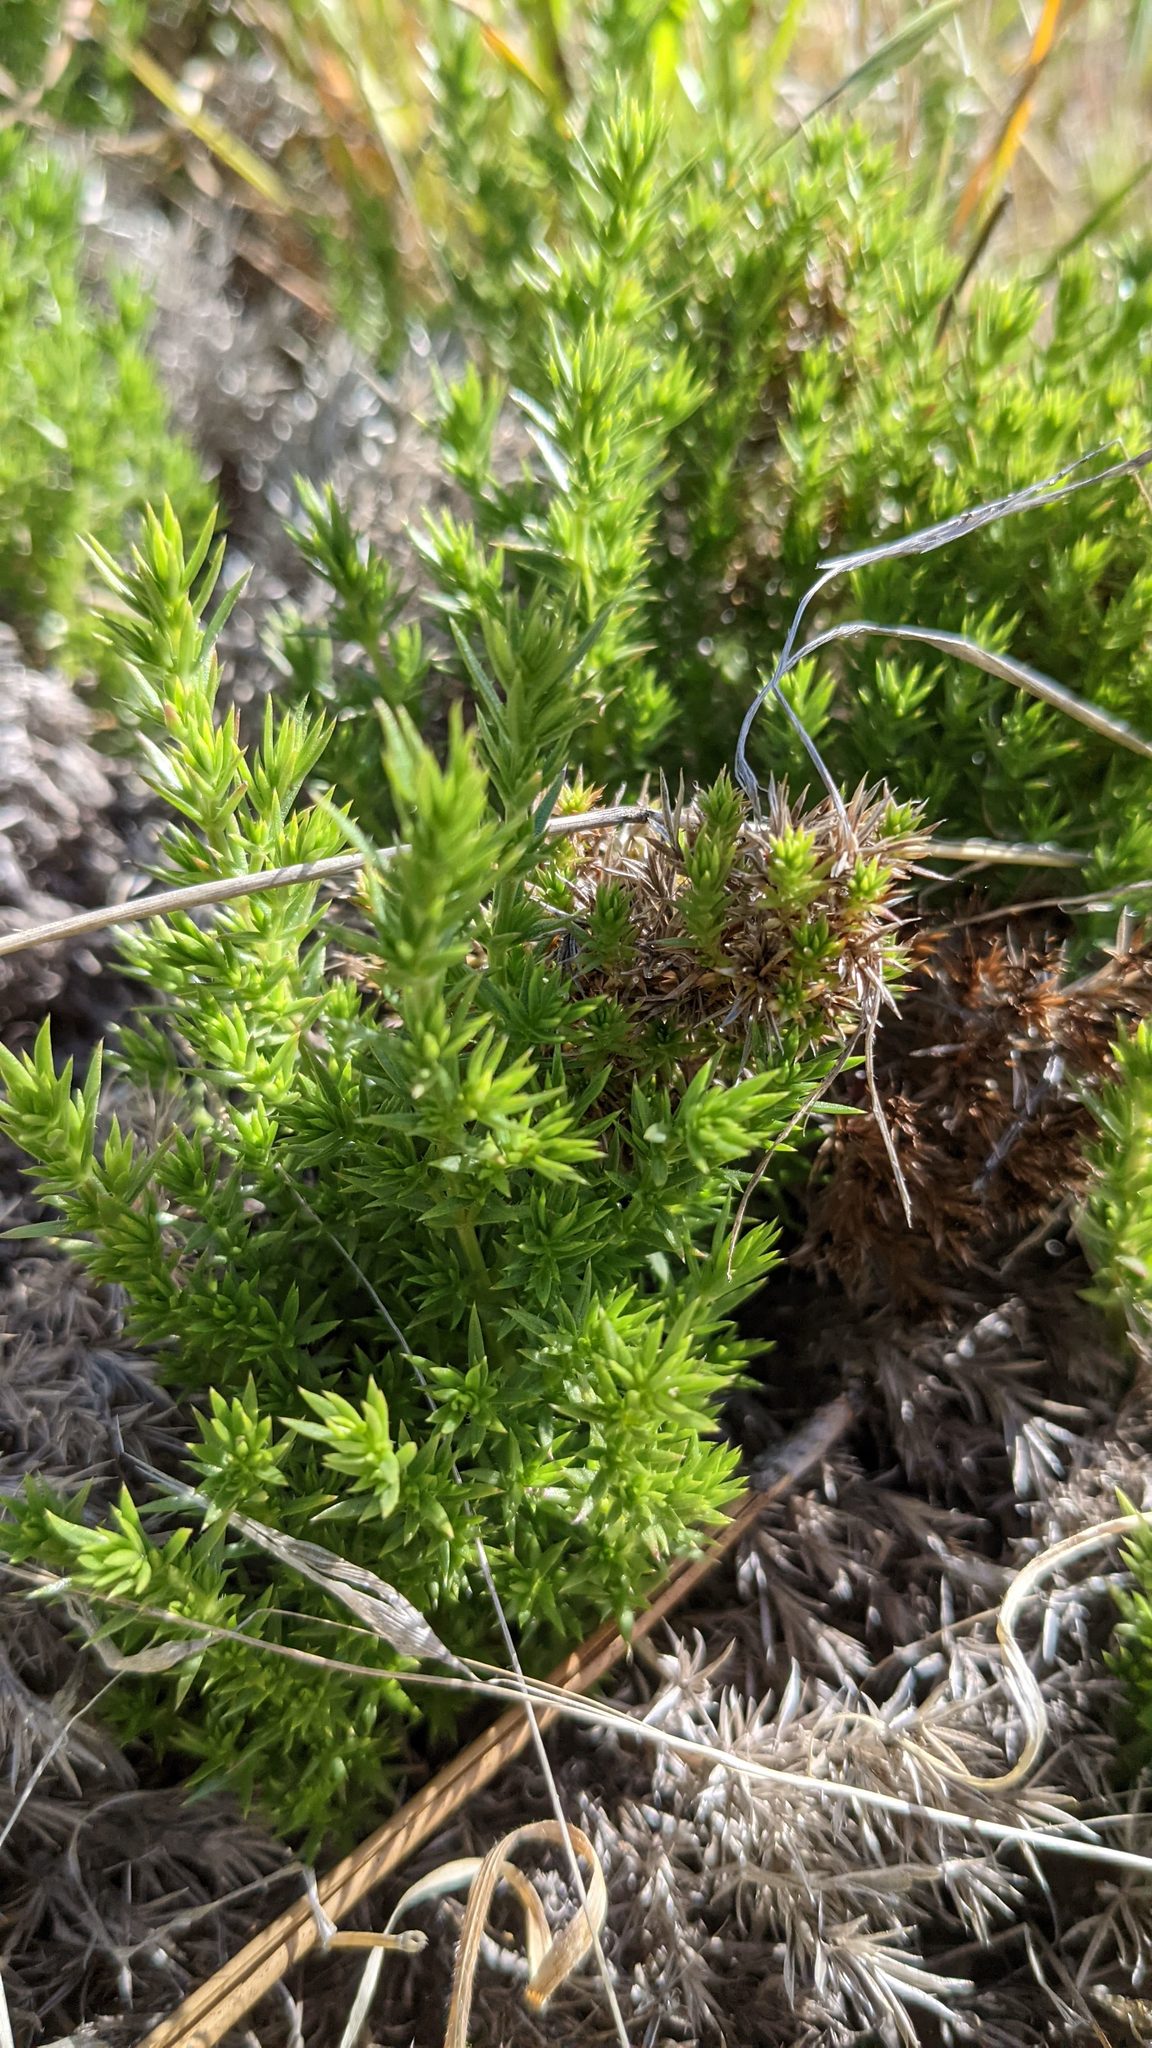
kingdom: Plantae
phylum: Tracheophyta
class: Magnoliopsida
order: Gentianales
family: Rubiaceae
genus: Galium
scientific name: Galium andrewsii
